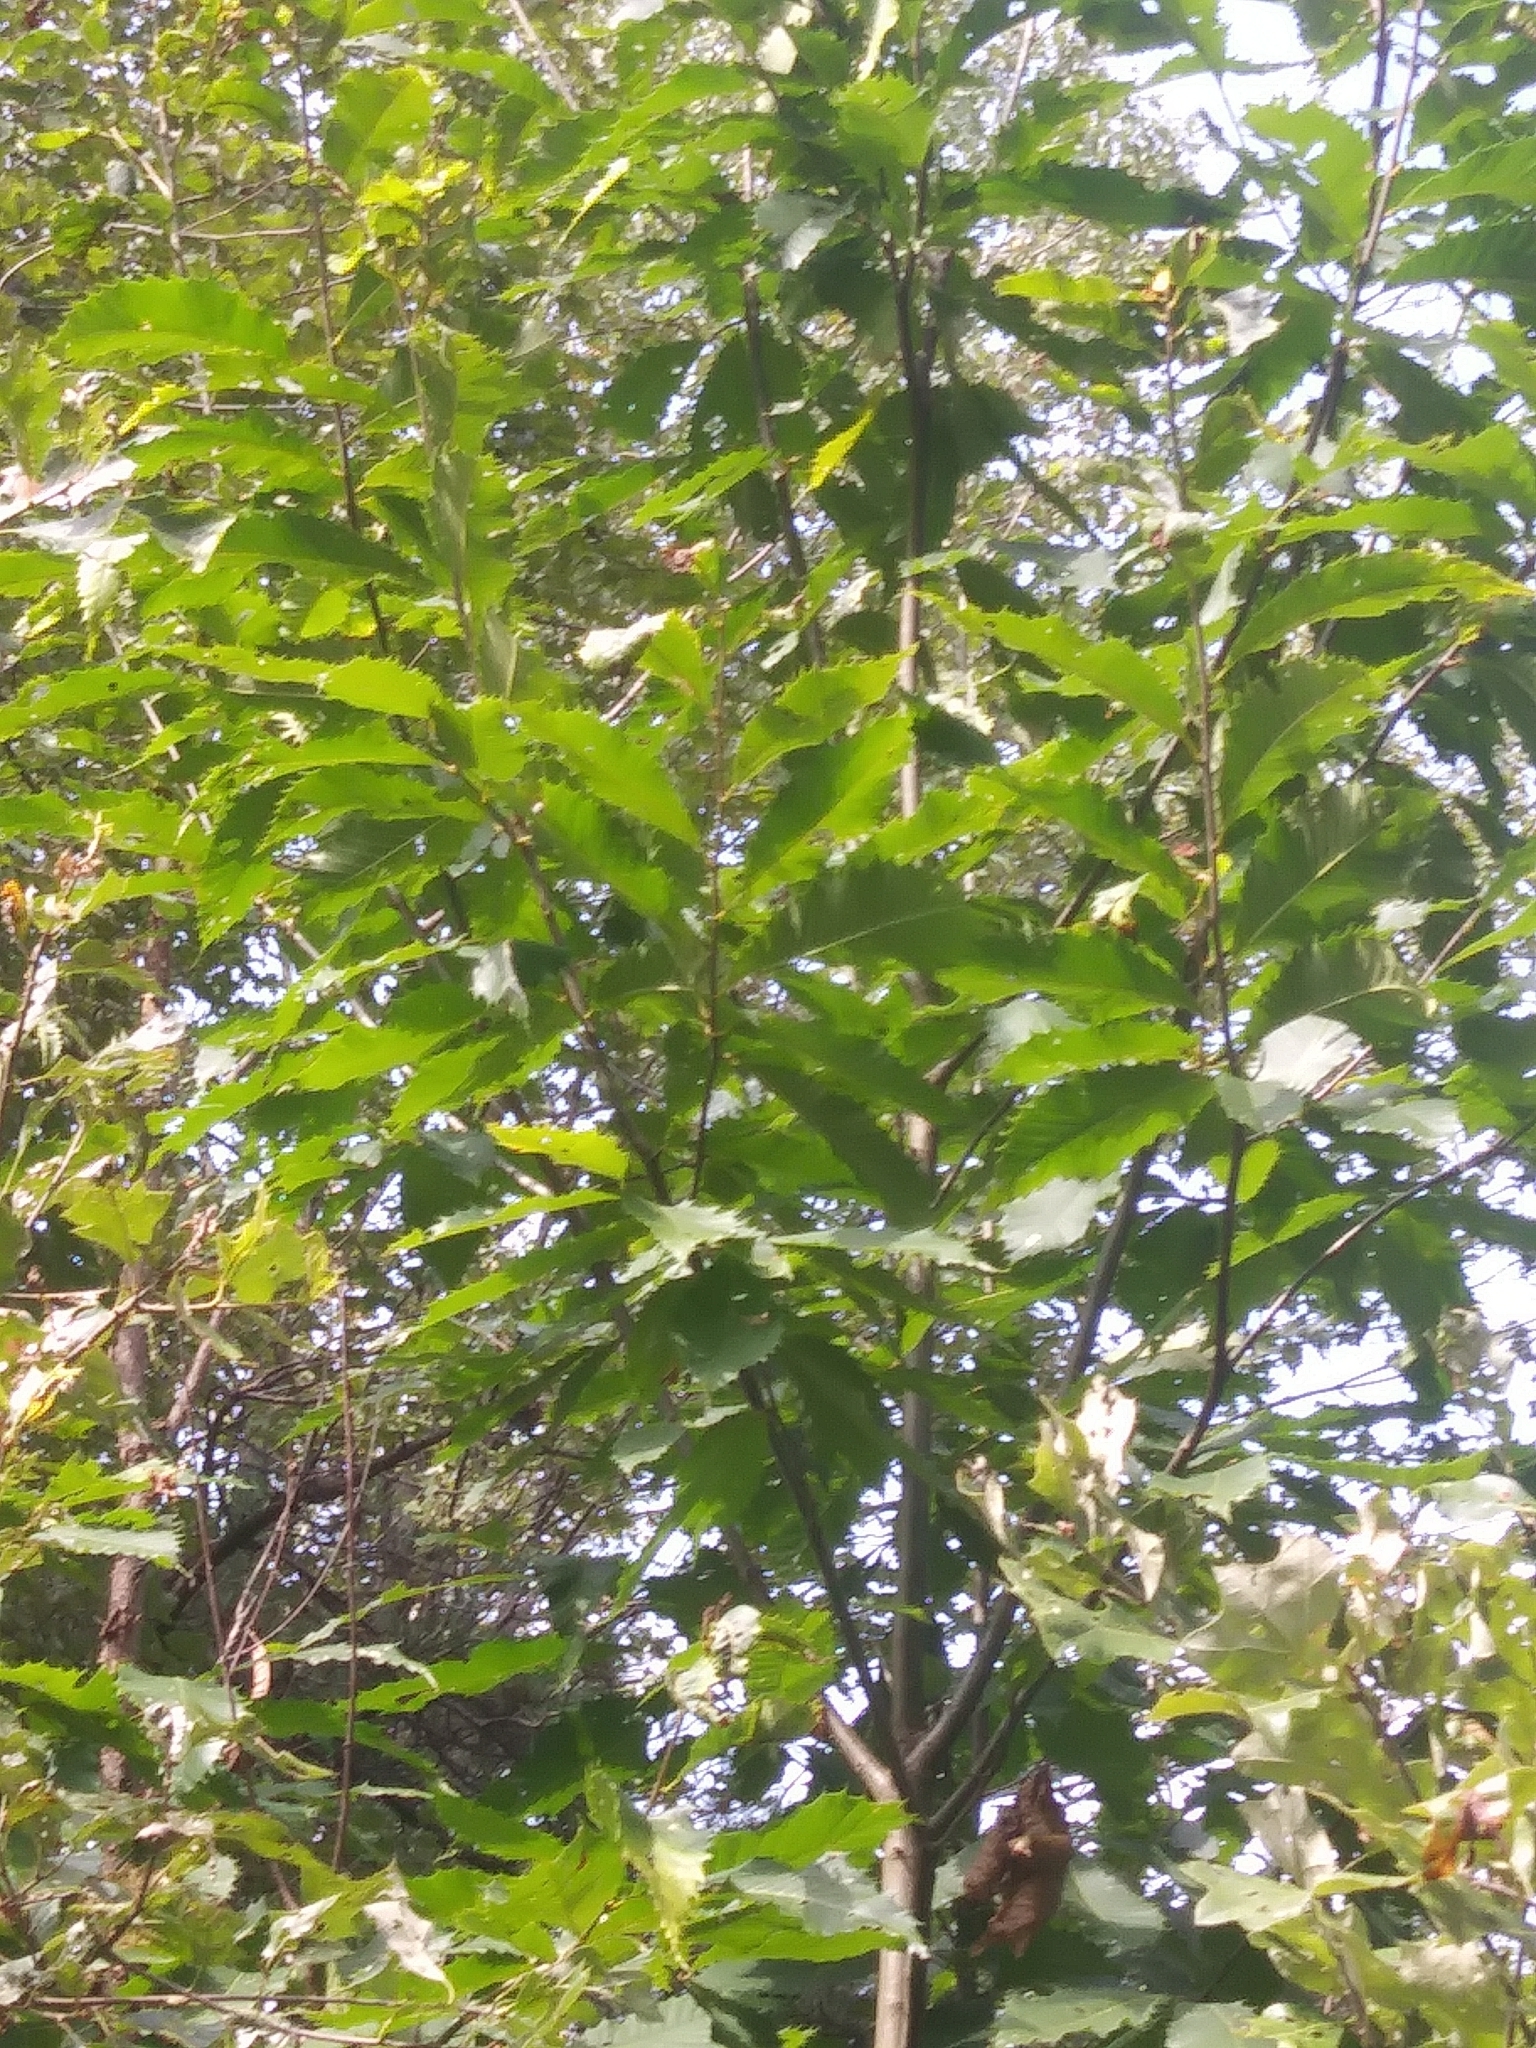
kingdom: Plantae
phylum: Tracheophyta
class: Magnoliopsida
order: Fagales
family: Fagaceae
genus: Castanea
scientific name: Castanea dentata
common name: American chestnut
